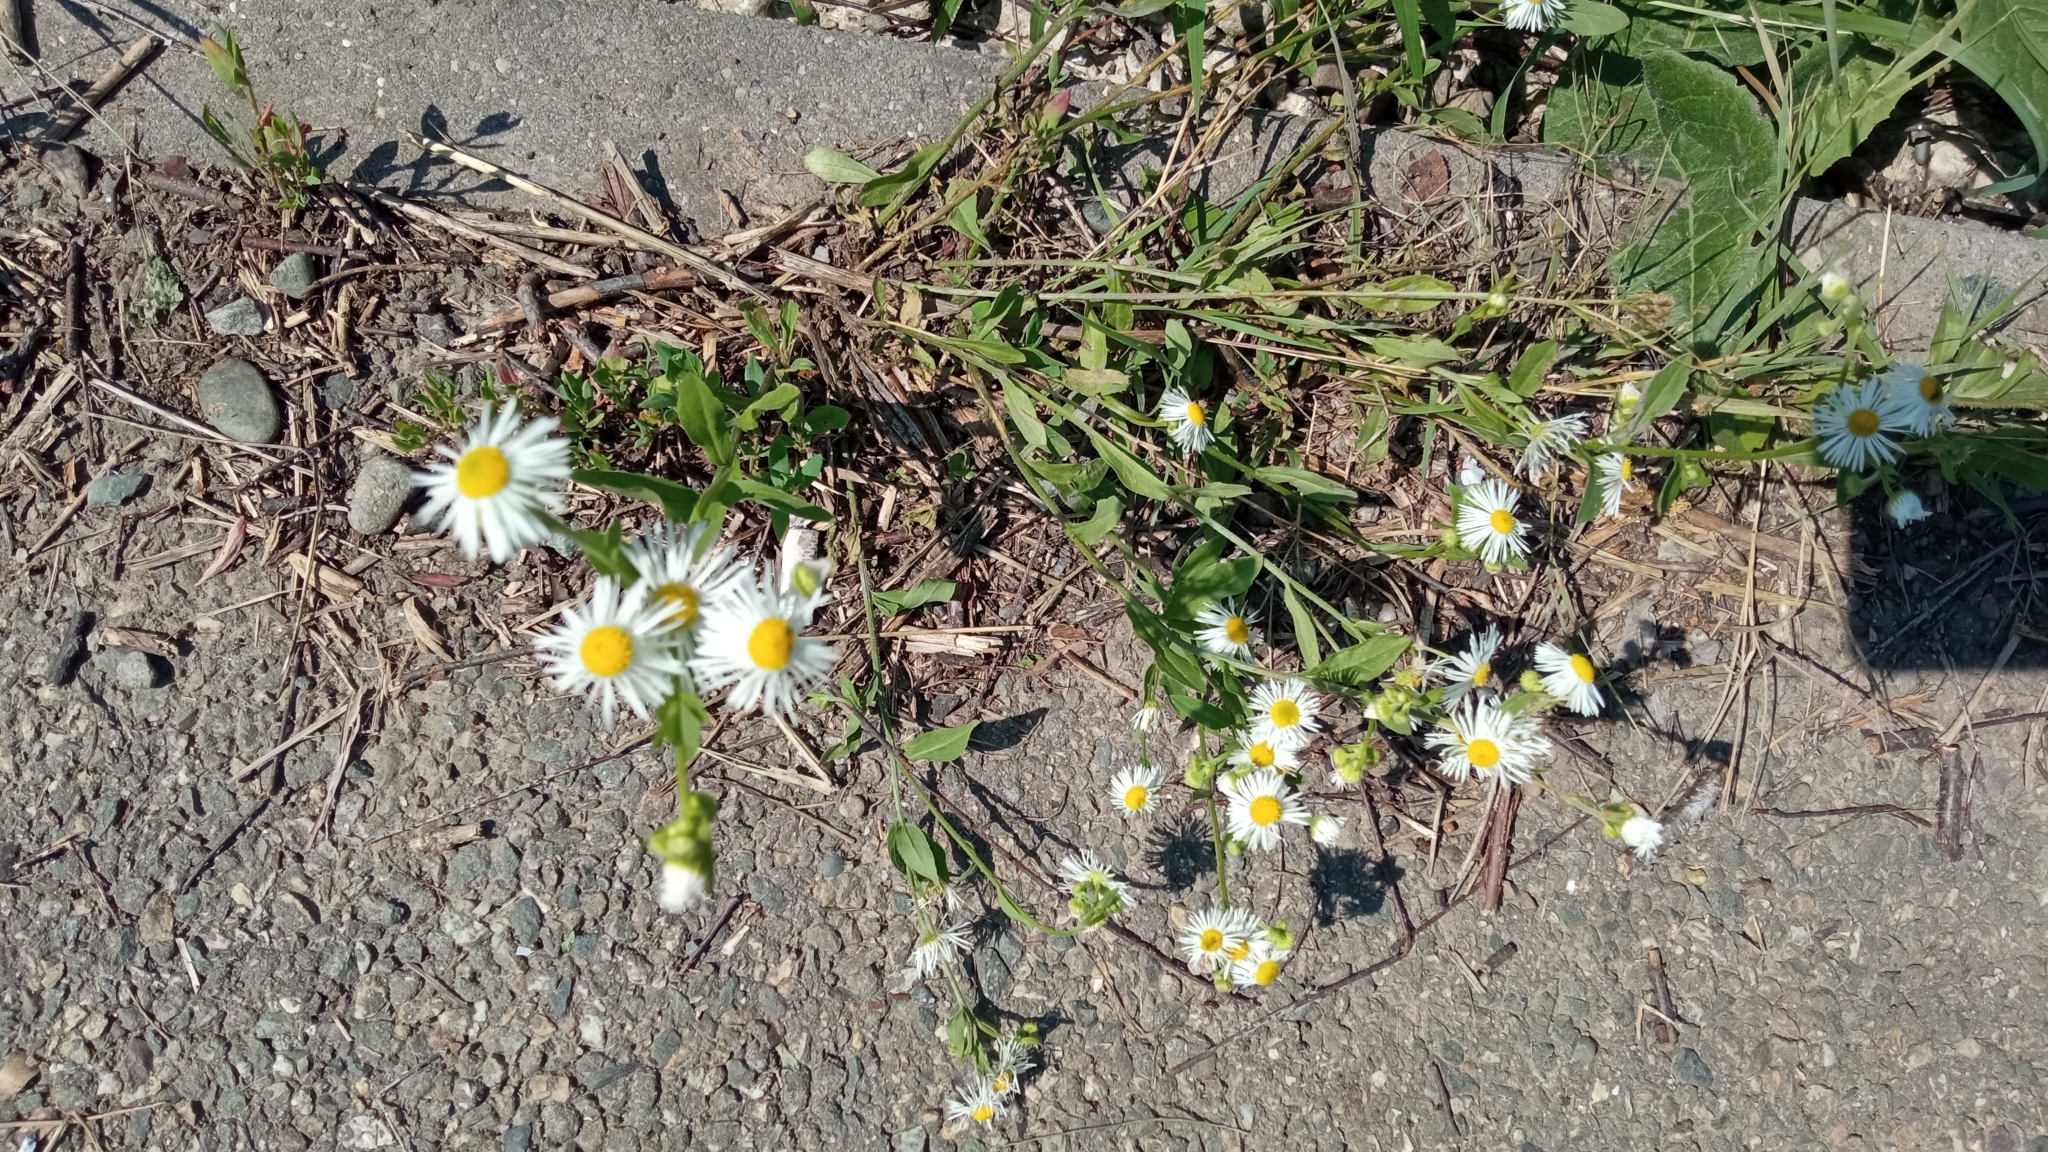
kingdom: Plantae
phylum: Tracheophyta
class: Magnoliopsida
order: Asterales
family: Asteraceae
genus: Erigeron
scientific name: Erigeron annuus
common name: Tall fleabane
